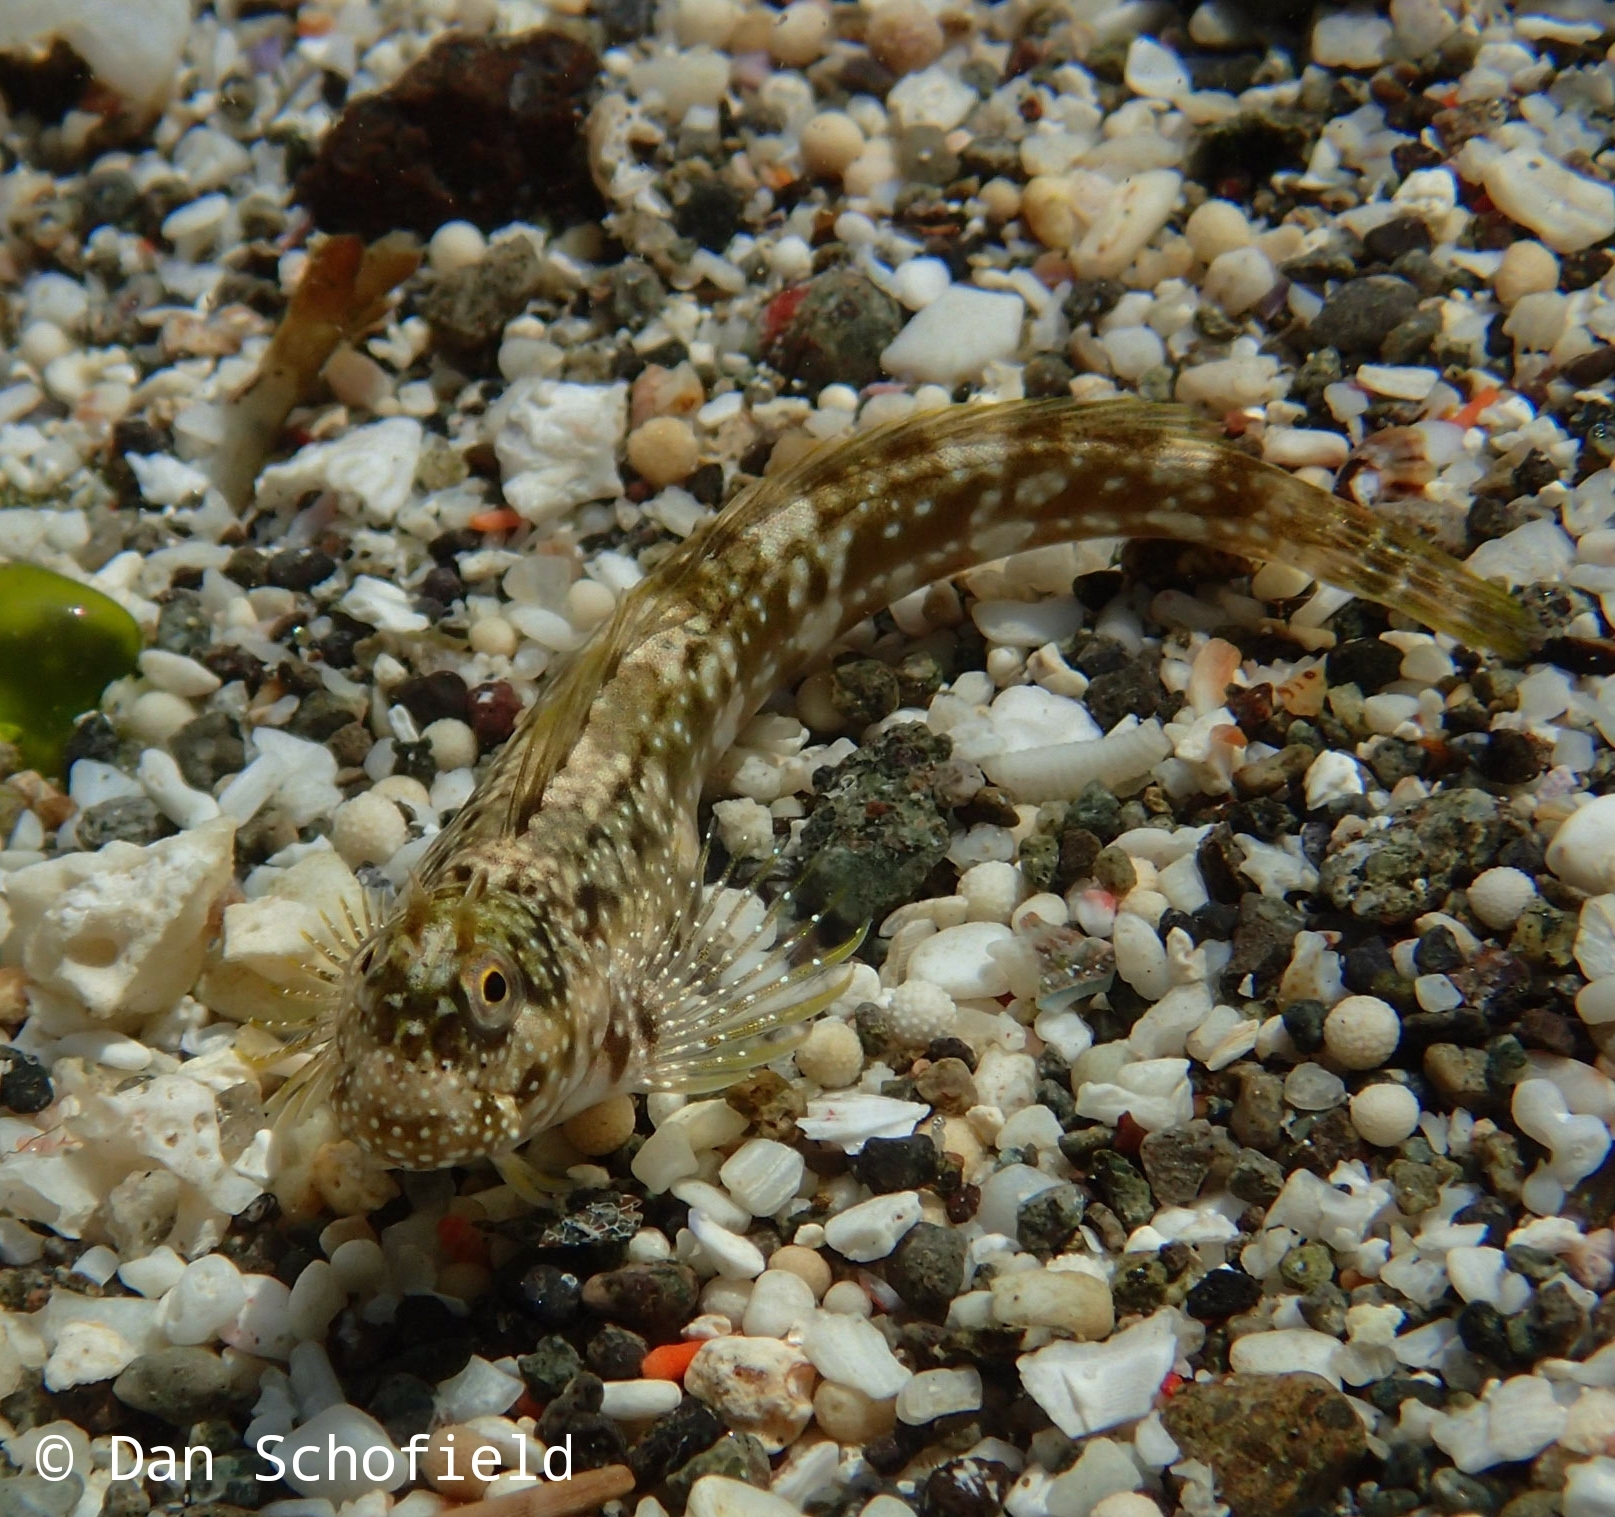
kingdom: Animalia
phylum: Chordata
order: Perciformes
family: Blenniidae
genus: Praealticus
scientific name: Praealticus bilineatus
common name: White-dotted rockskipper
